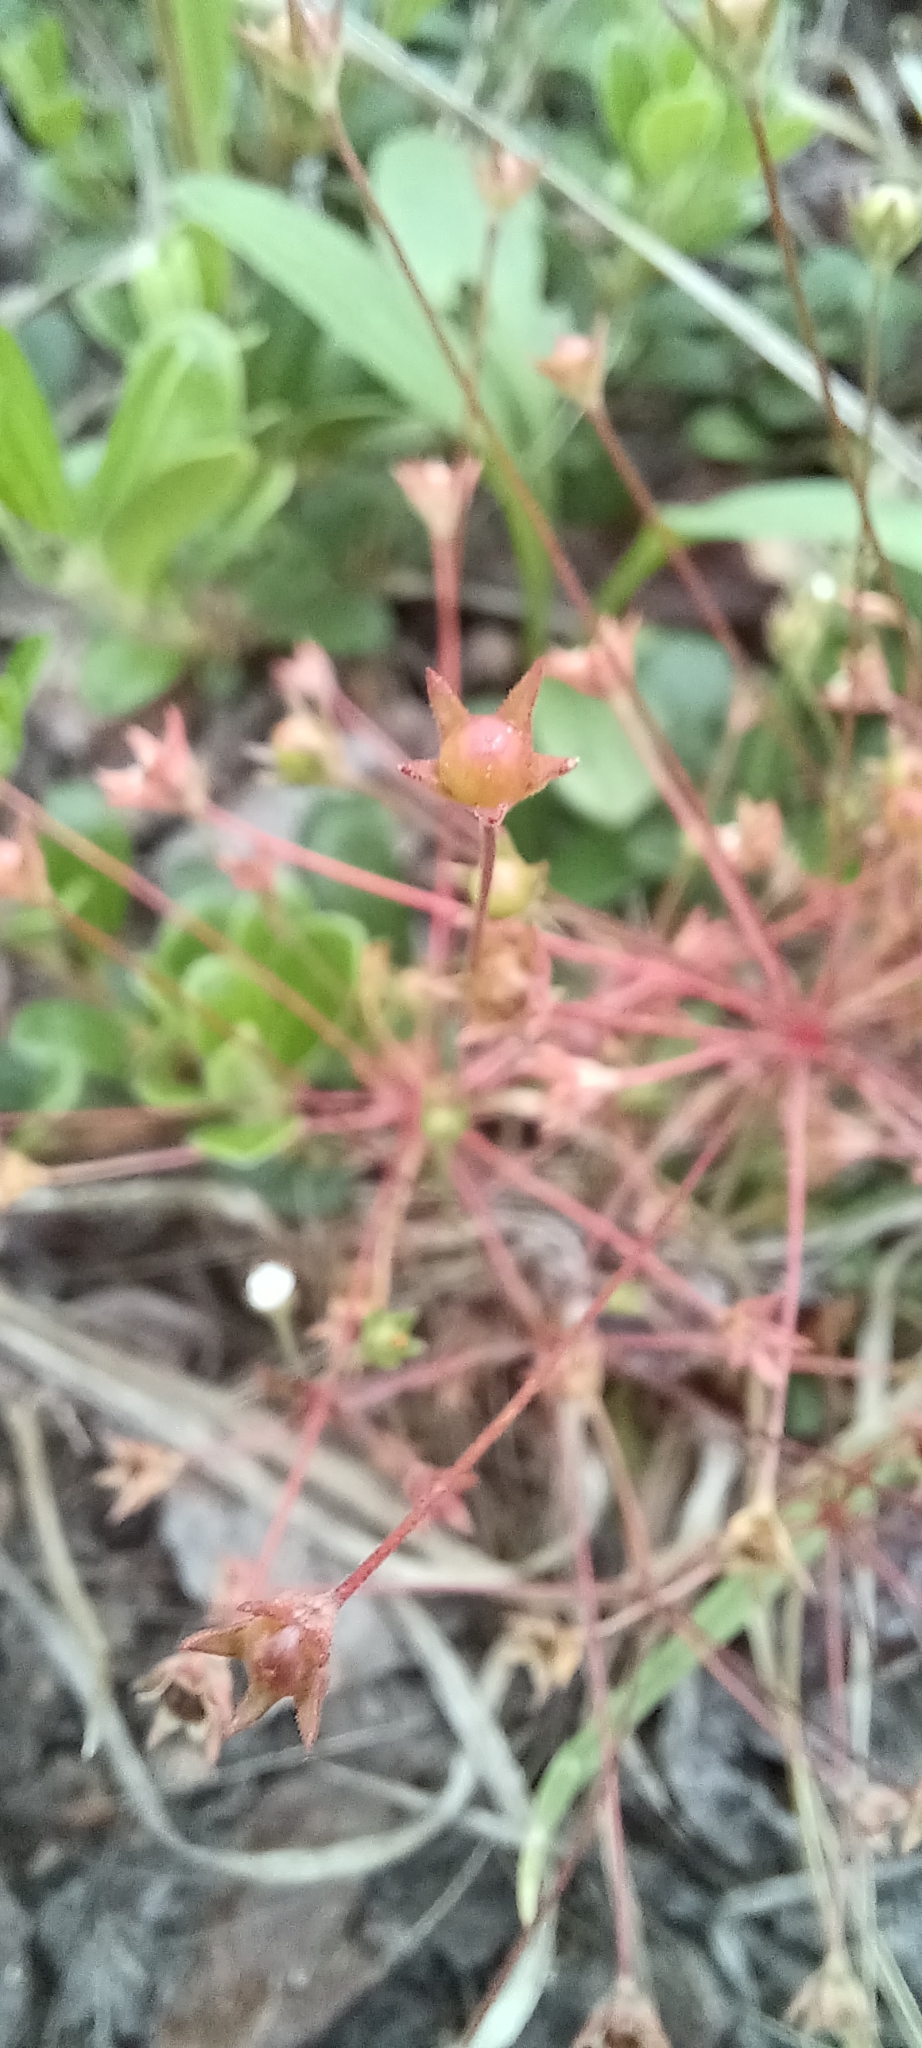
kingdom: Plantae
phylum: Tracheophyta
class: Magnoliopsida
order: Ericales
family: Primulaceae
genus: Androsace
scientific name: Androsace septentrionalis
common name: Hairy northern fairy-candelabra
